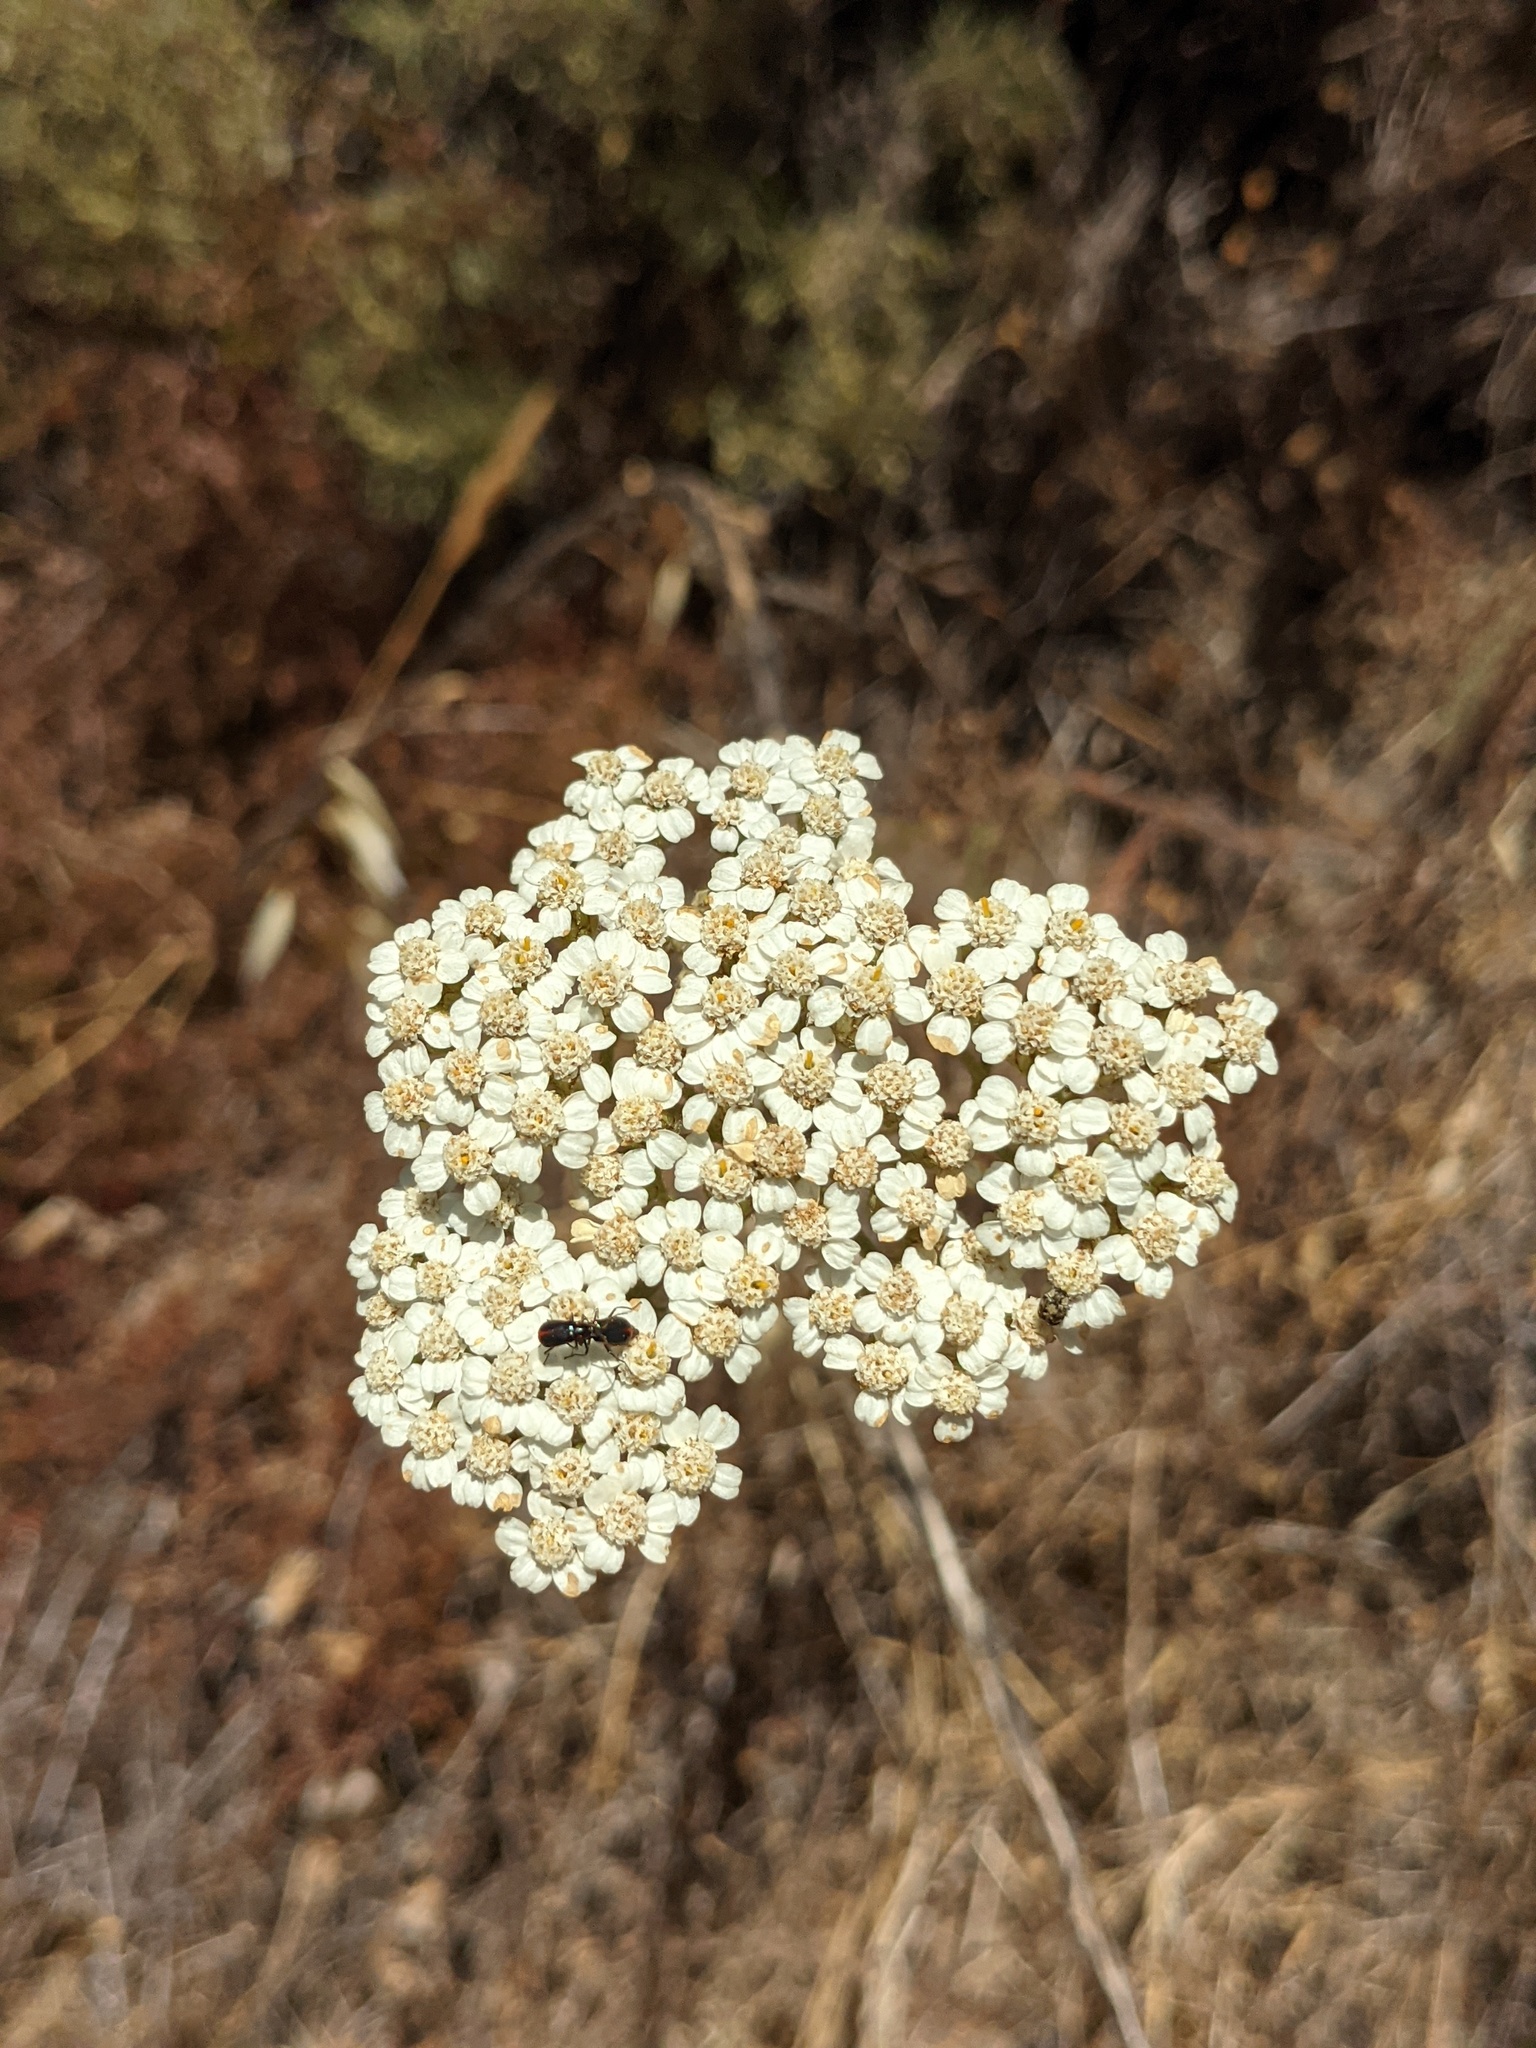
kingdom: Plantae
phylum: Tracheophyta
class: Magnoliopsida
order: Asterales
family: Asteraceae
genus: Achillea
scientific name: Achillea millefolium
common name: Yarrow
